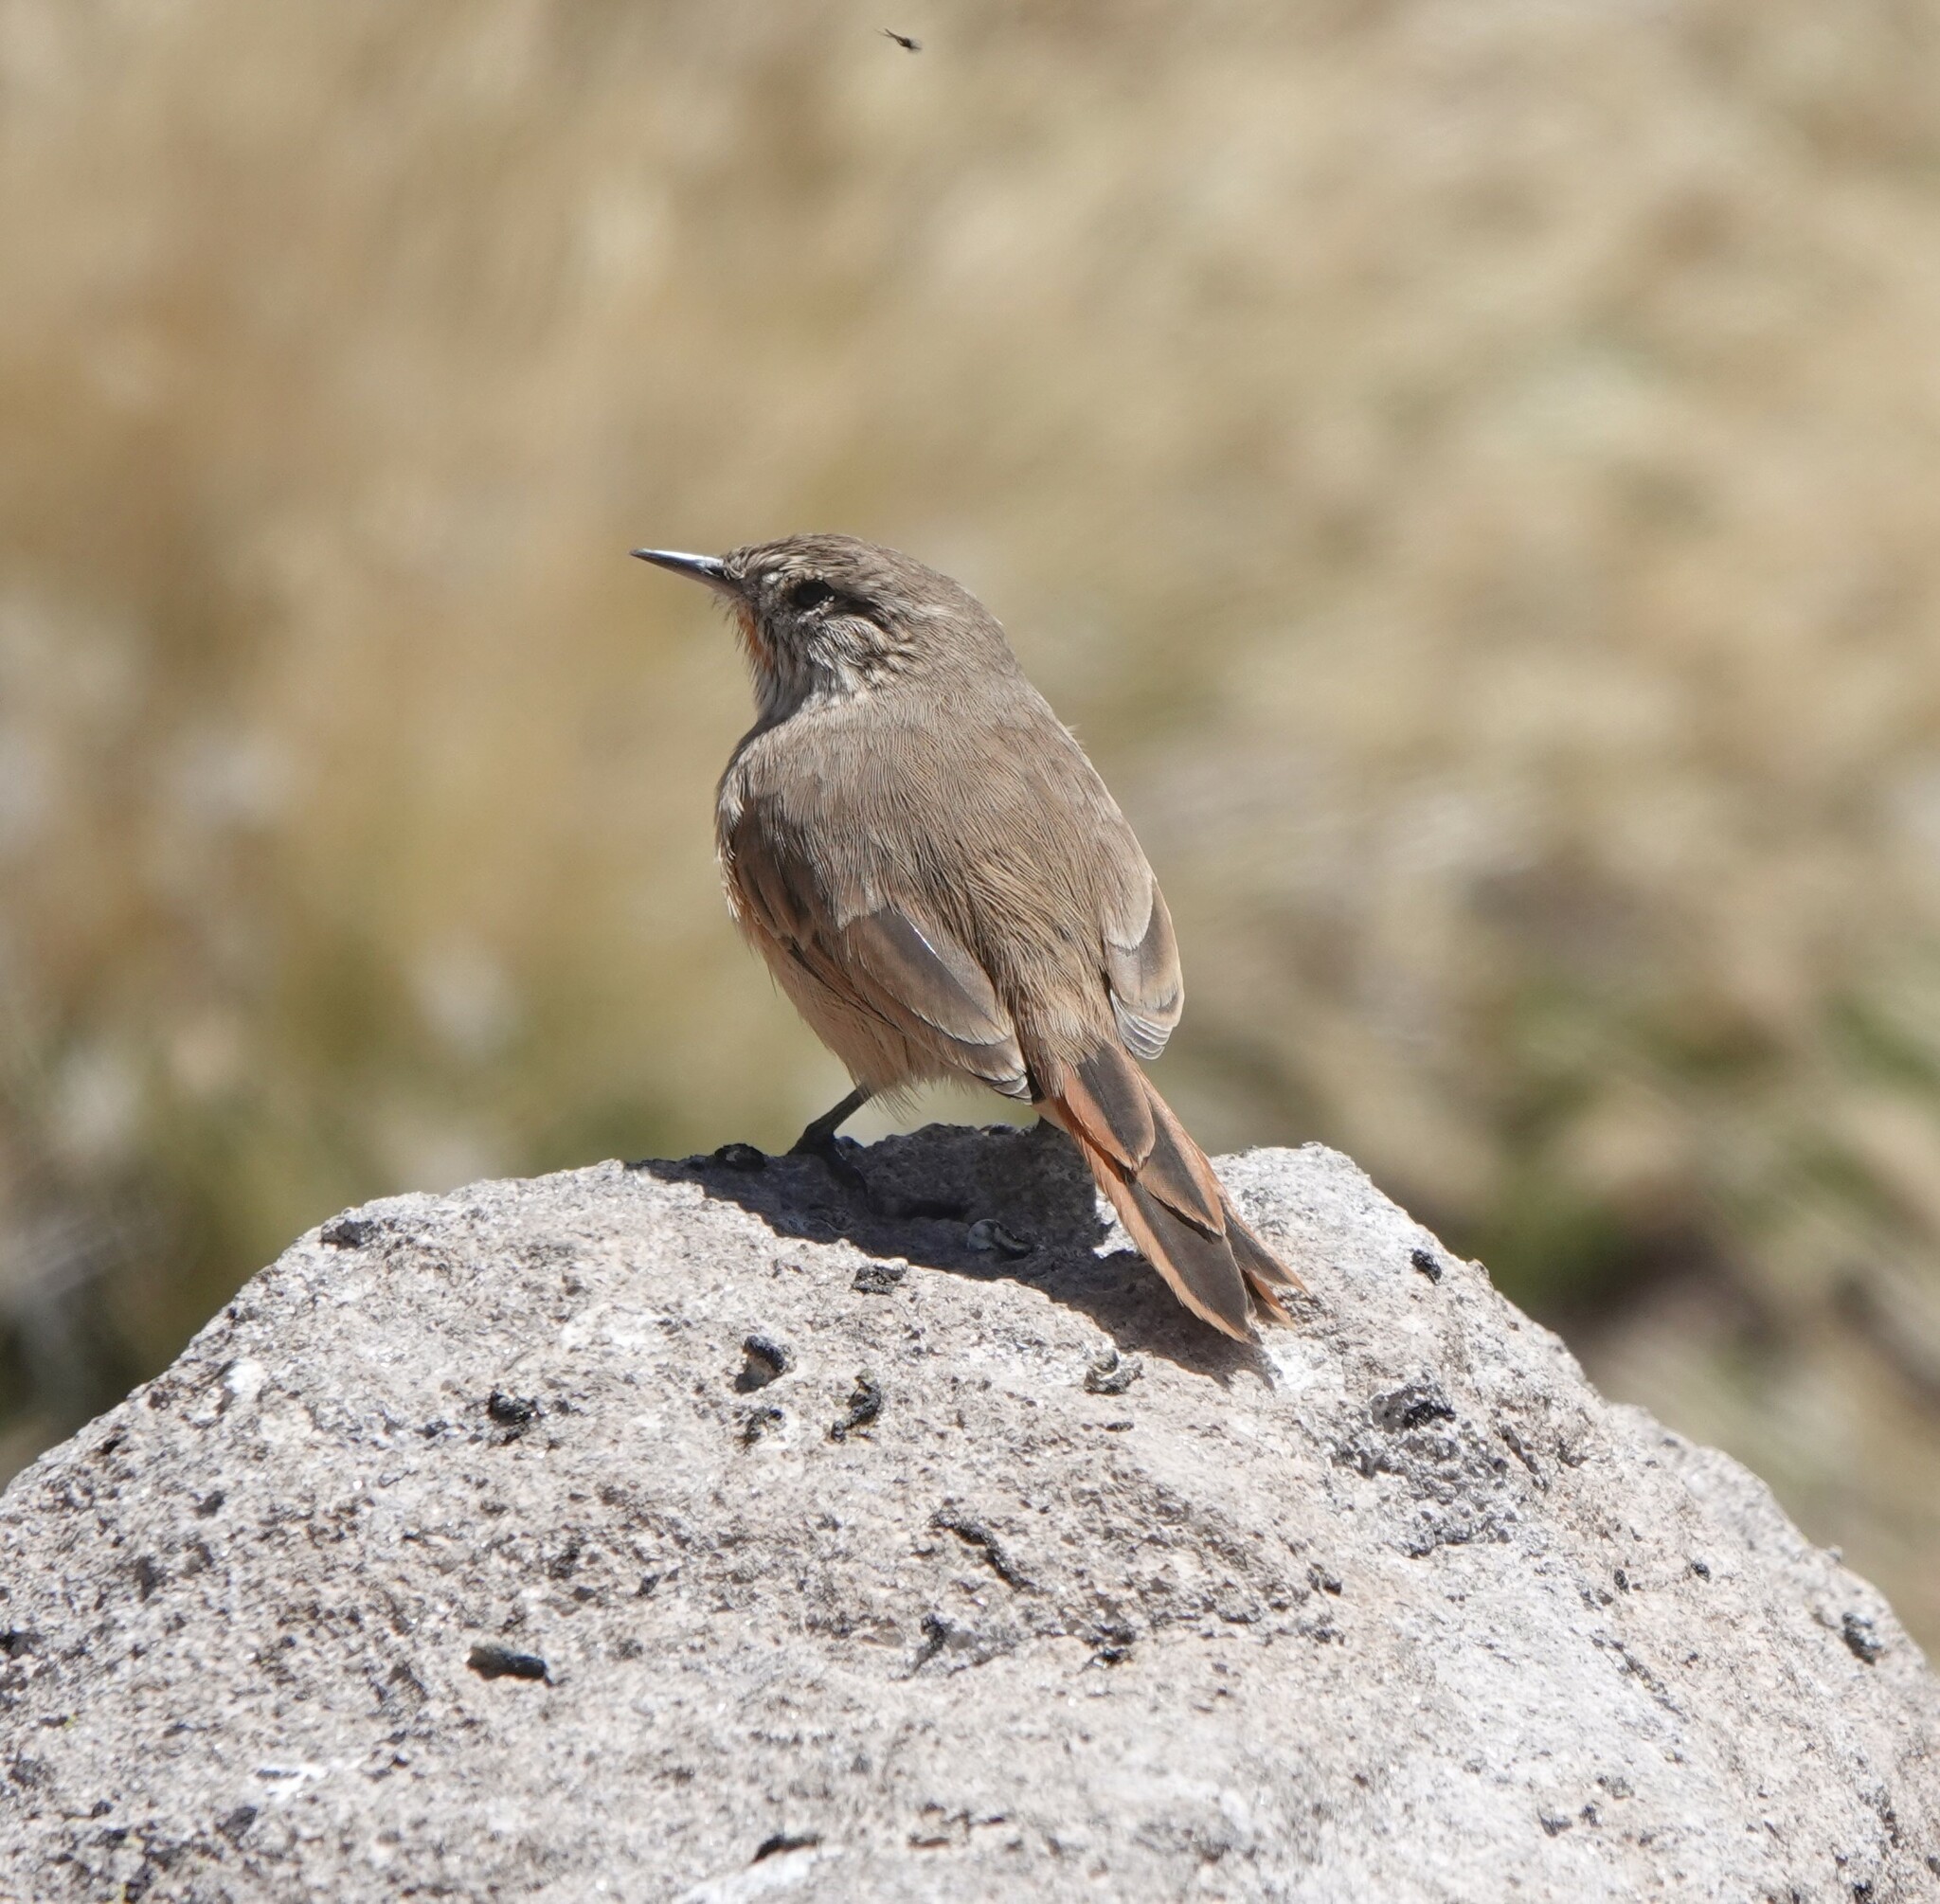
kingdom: Animalia
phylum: Chordata
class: Aves
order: Passeriformes
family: Furnariidae
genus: Asthenes
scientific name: Asthenes modesta
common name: Cordilleran canastero
